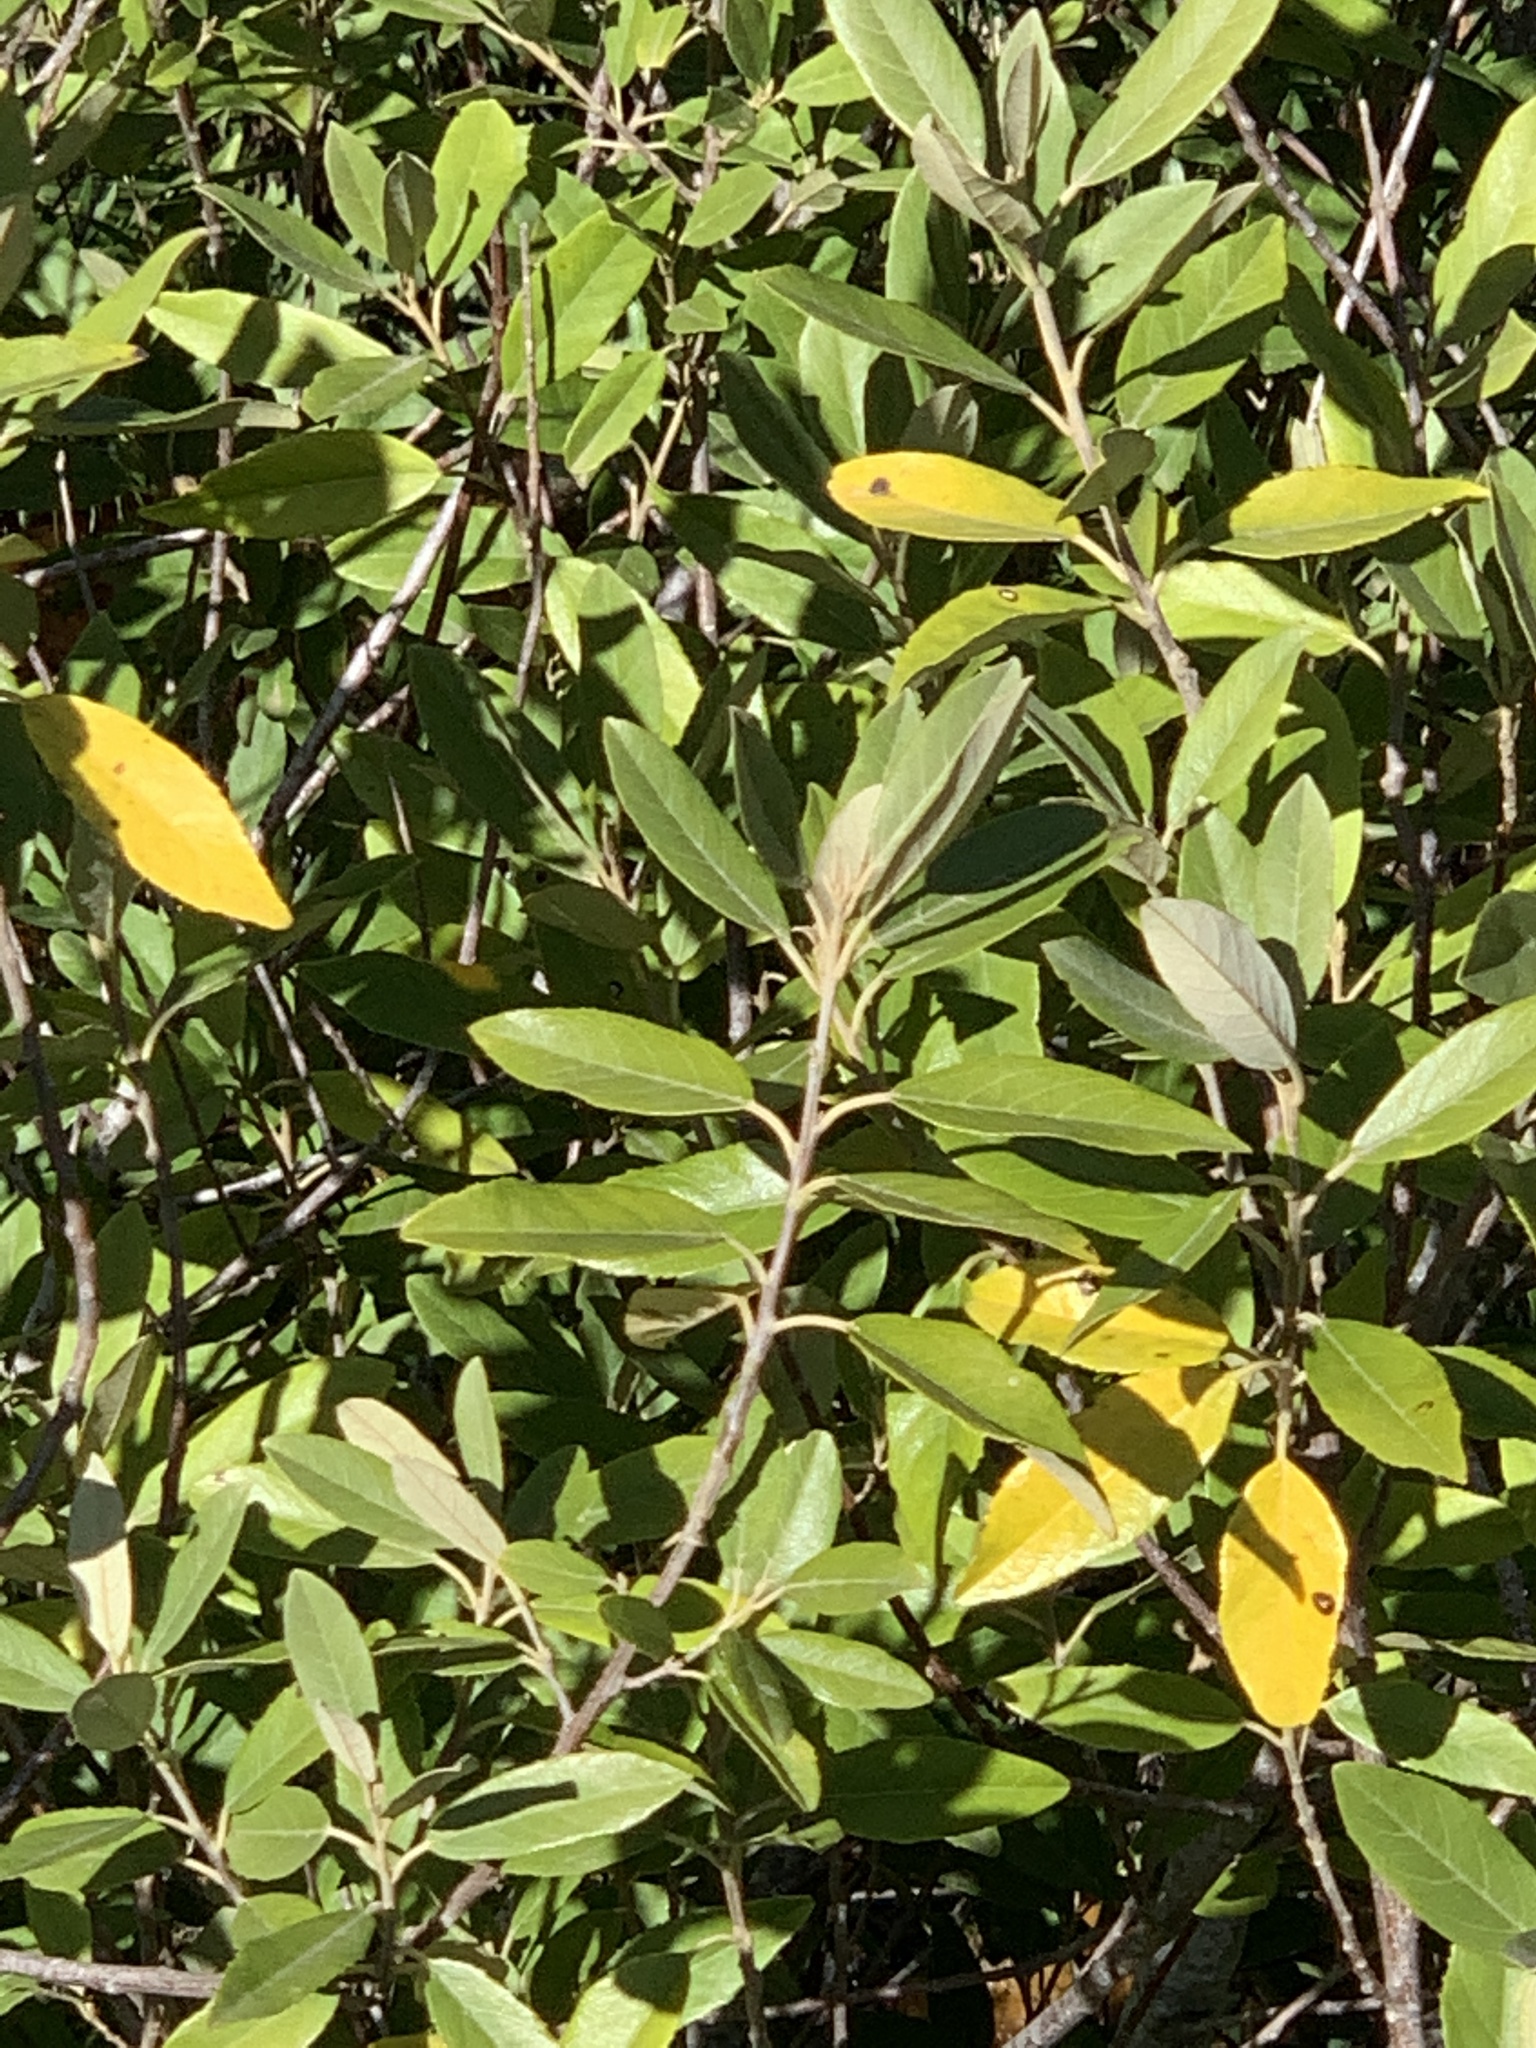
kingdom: Plantae
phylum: Tracheophyta
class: Magnoliopsida
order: Malpighiales
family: Achariaceae
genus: Kiggelaria
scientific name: Kiggelaria africana
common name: Wild peach
